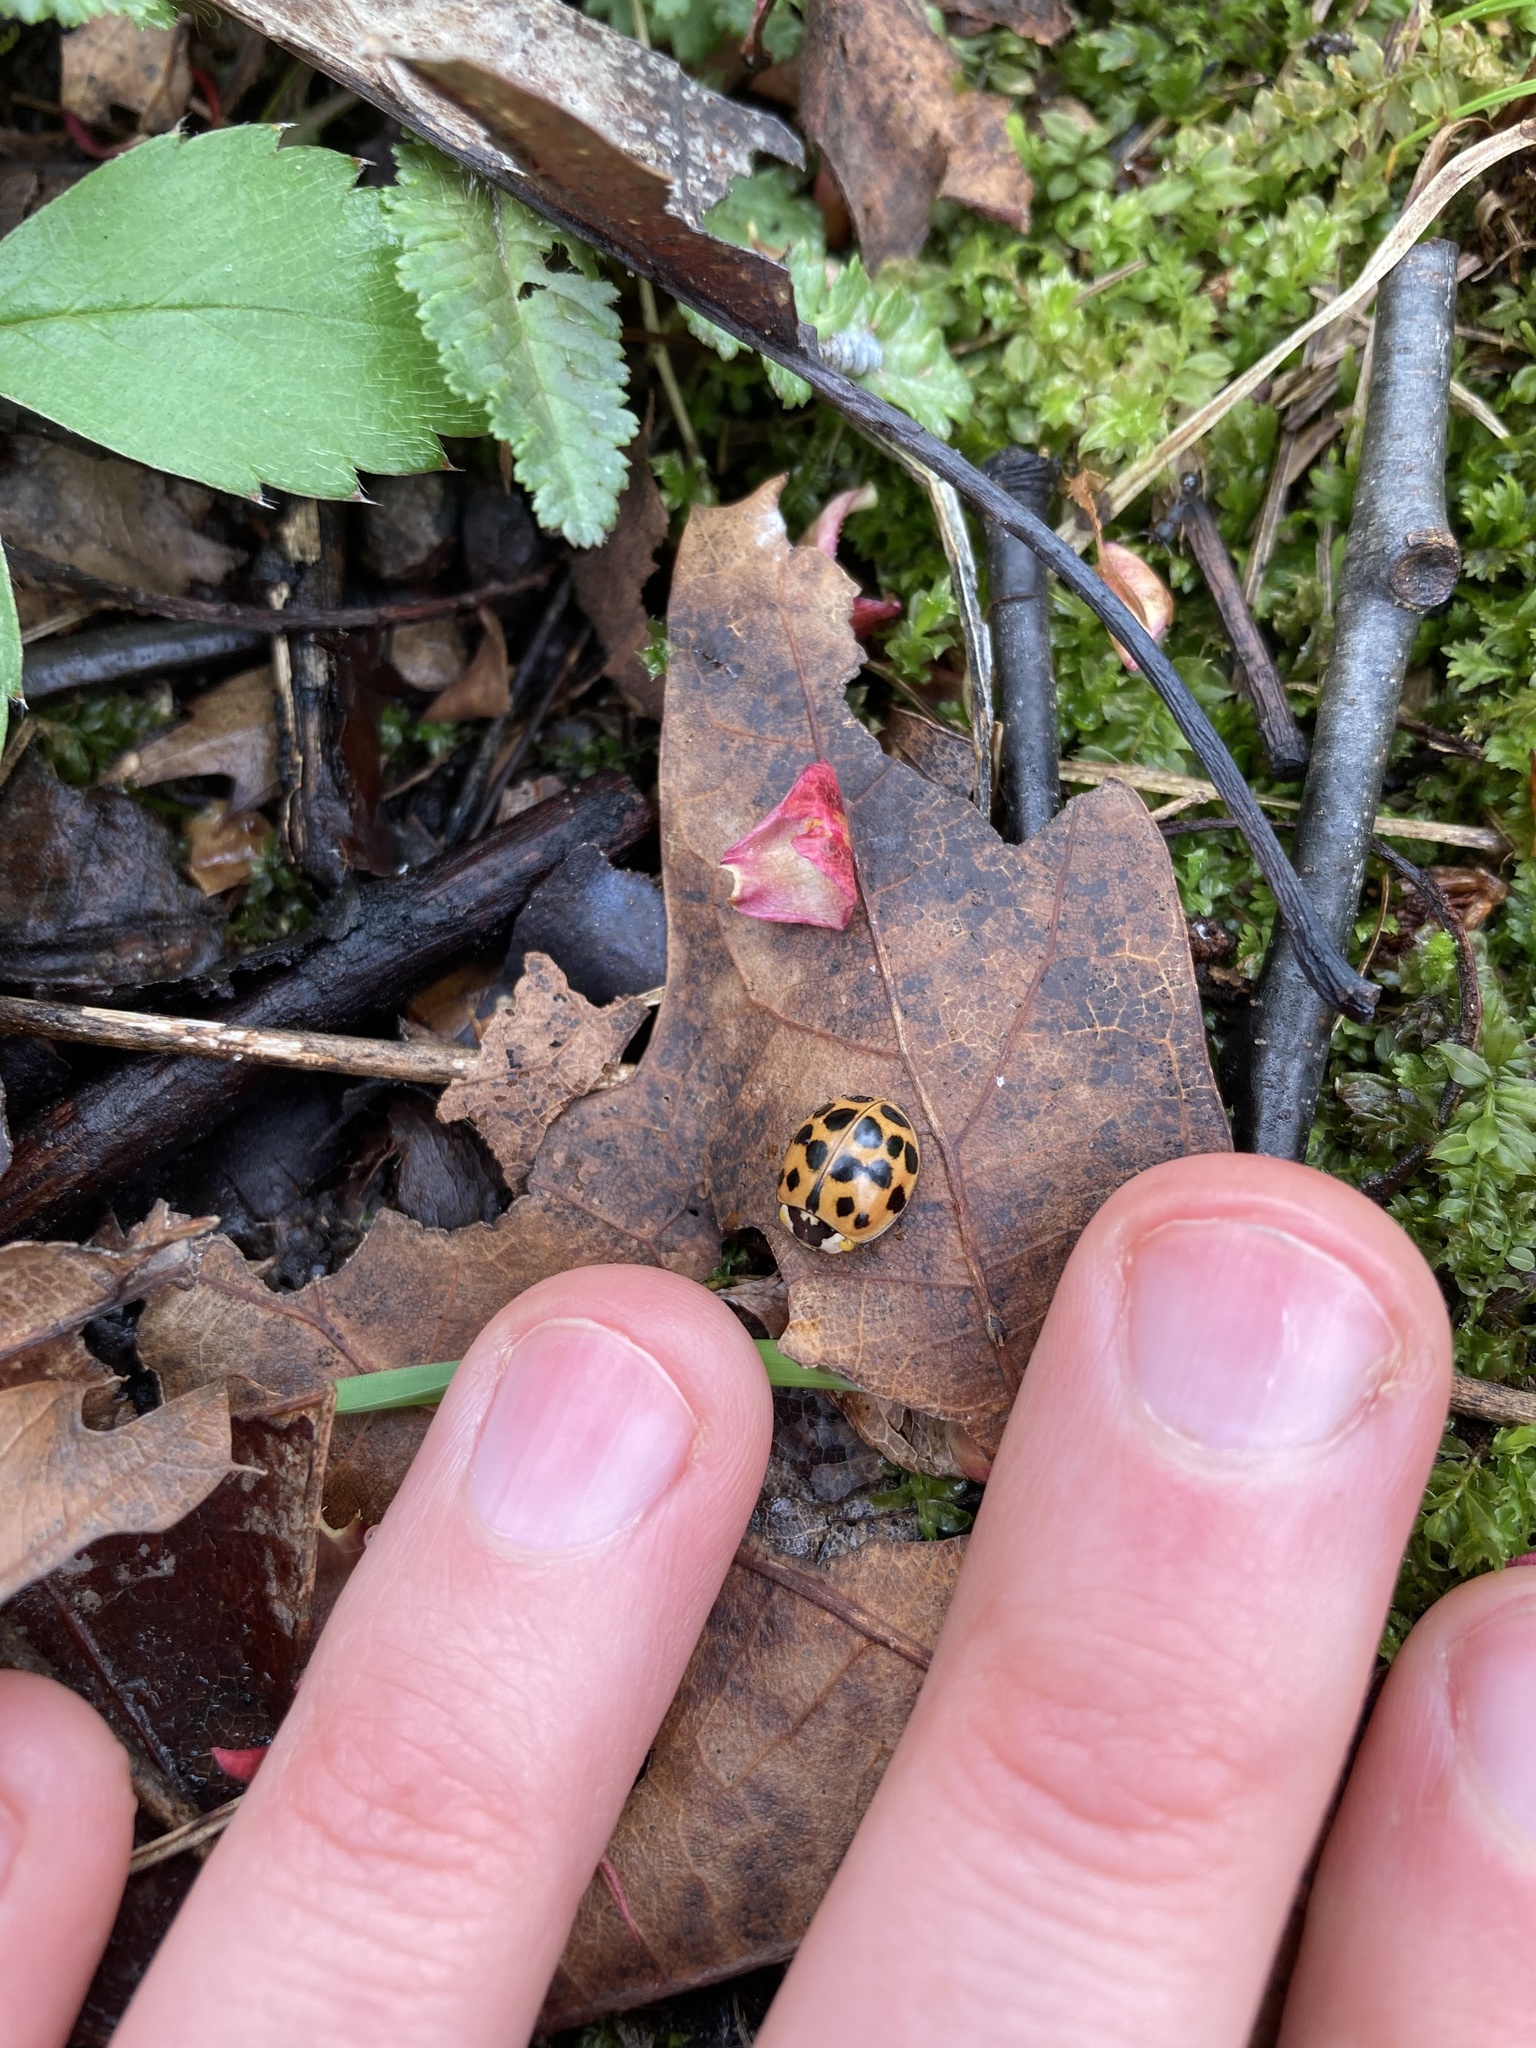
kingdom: Animalia
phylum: Arthropoda
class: Insecta
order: Coleoptera
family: Coccinellidae
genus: Harmonia
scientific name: Harmonia axyridis
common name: Harlequin ladybird
